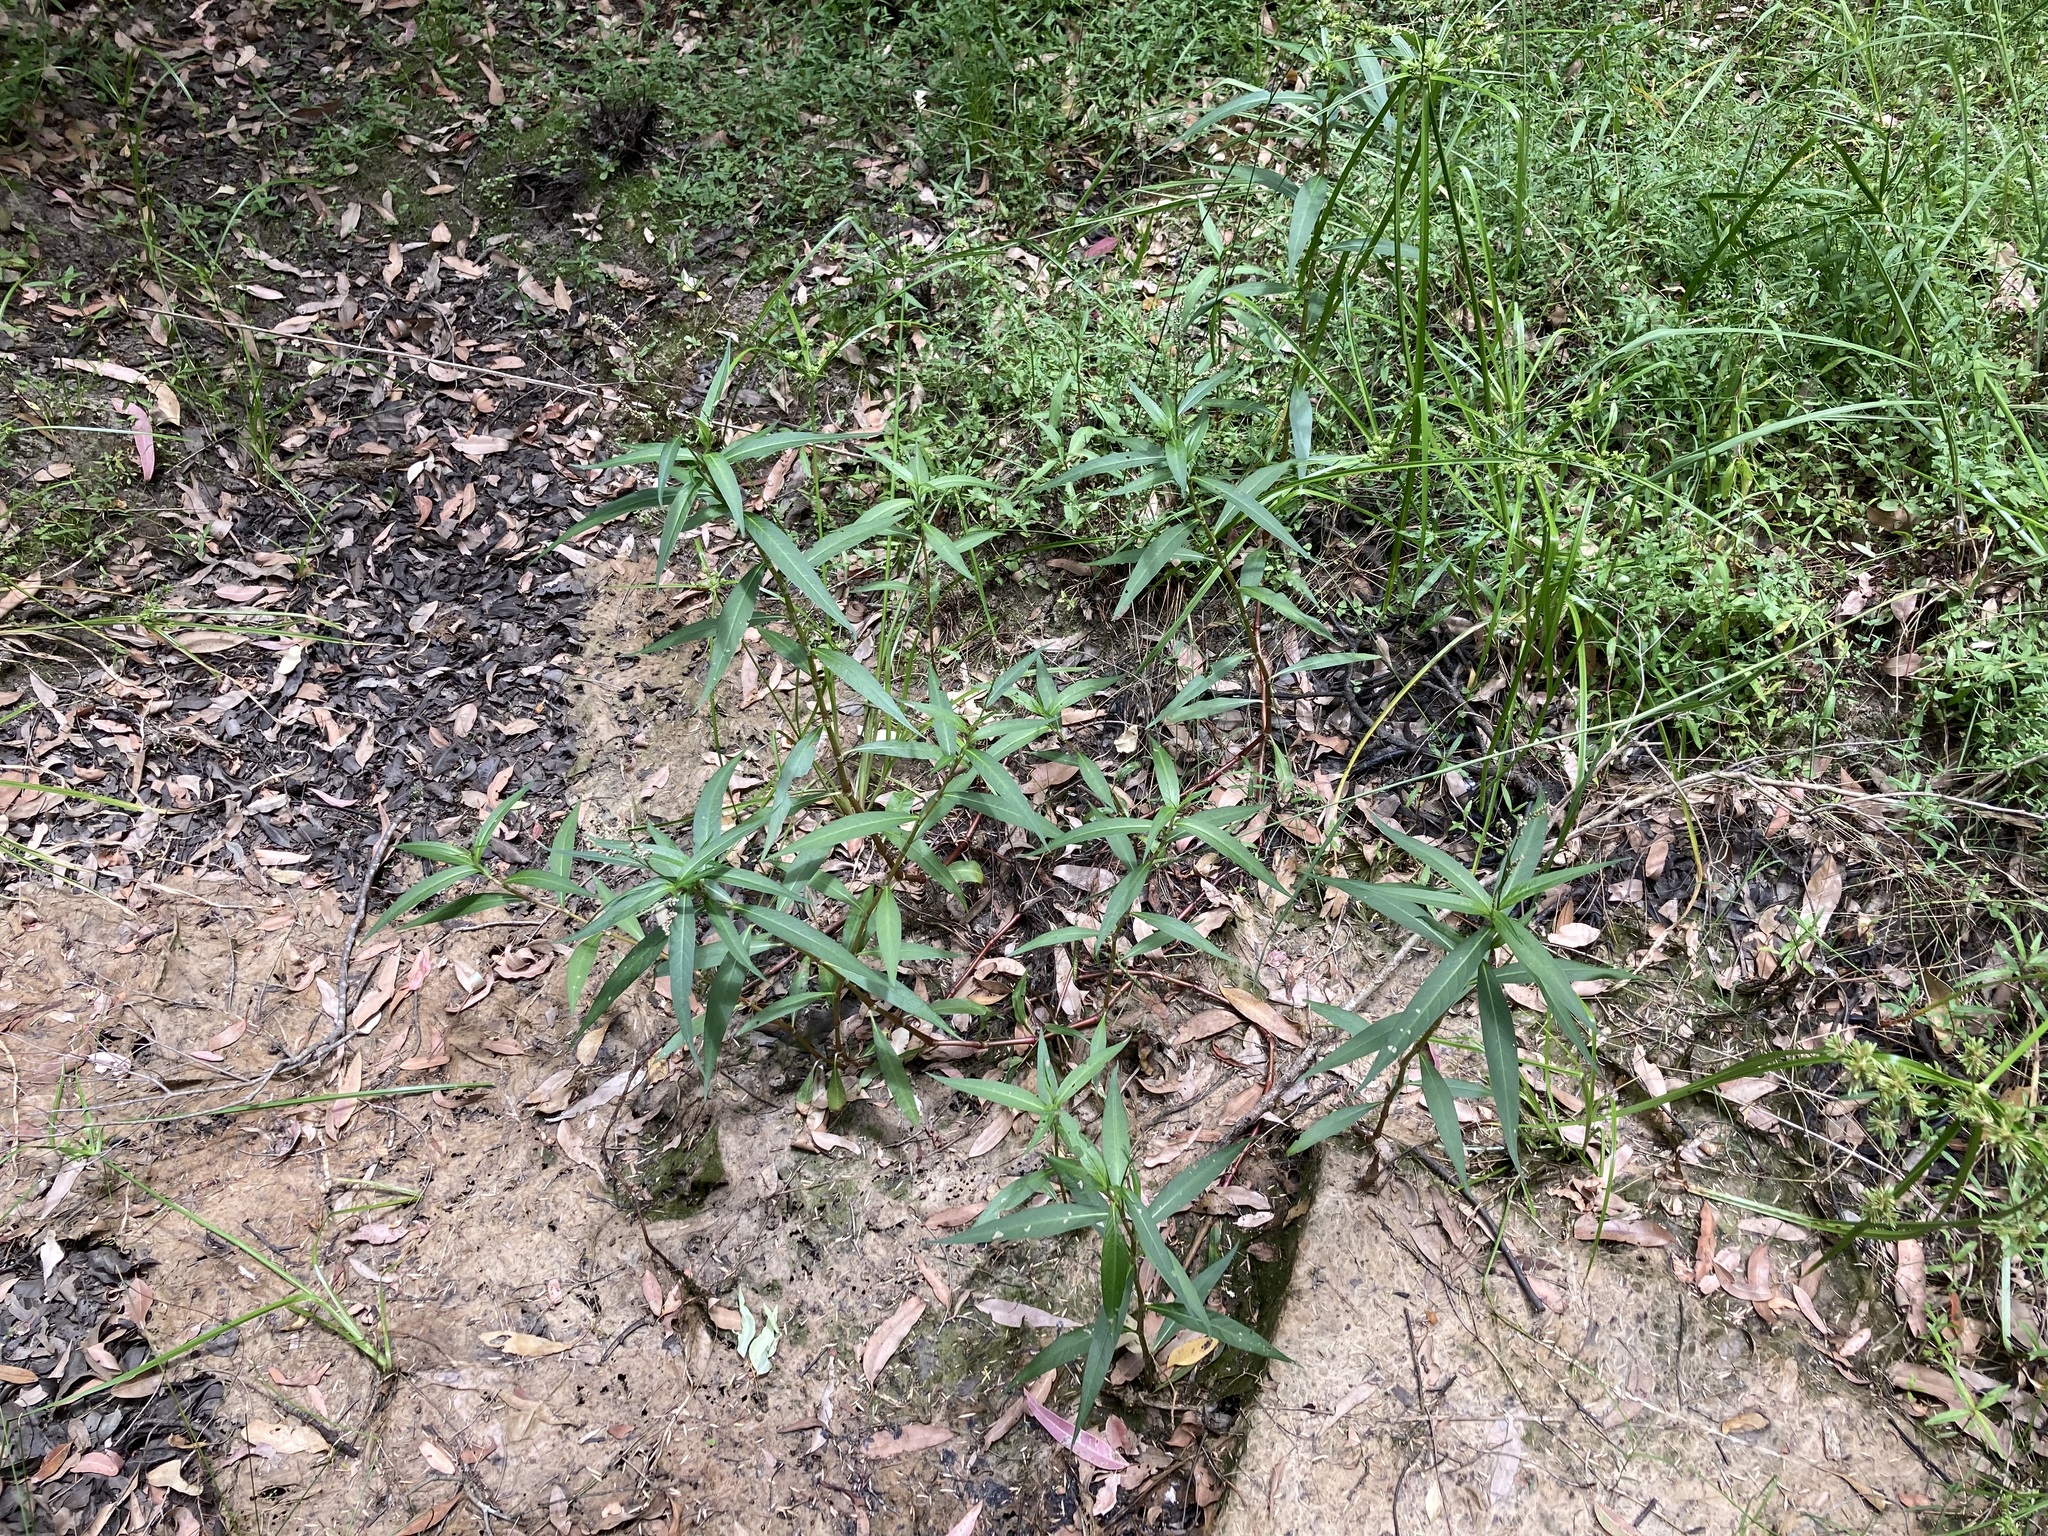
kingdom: Plantae
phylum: Tracheophyta
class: Magnoliopsida
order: Caryophyllales
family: Polygonaceae
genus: Persicaria
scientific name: Persicaria lapathifolia
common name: Curlytop knotweed
